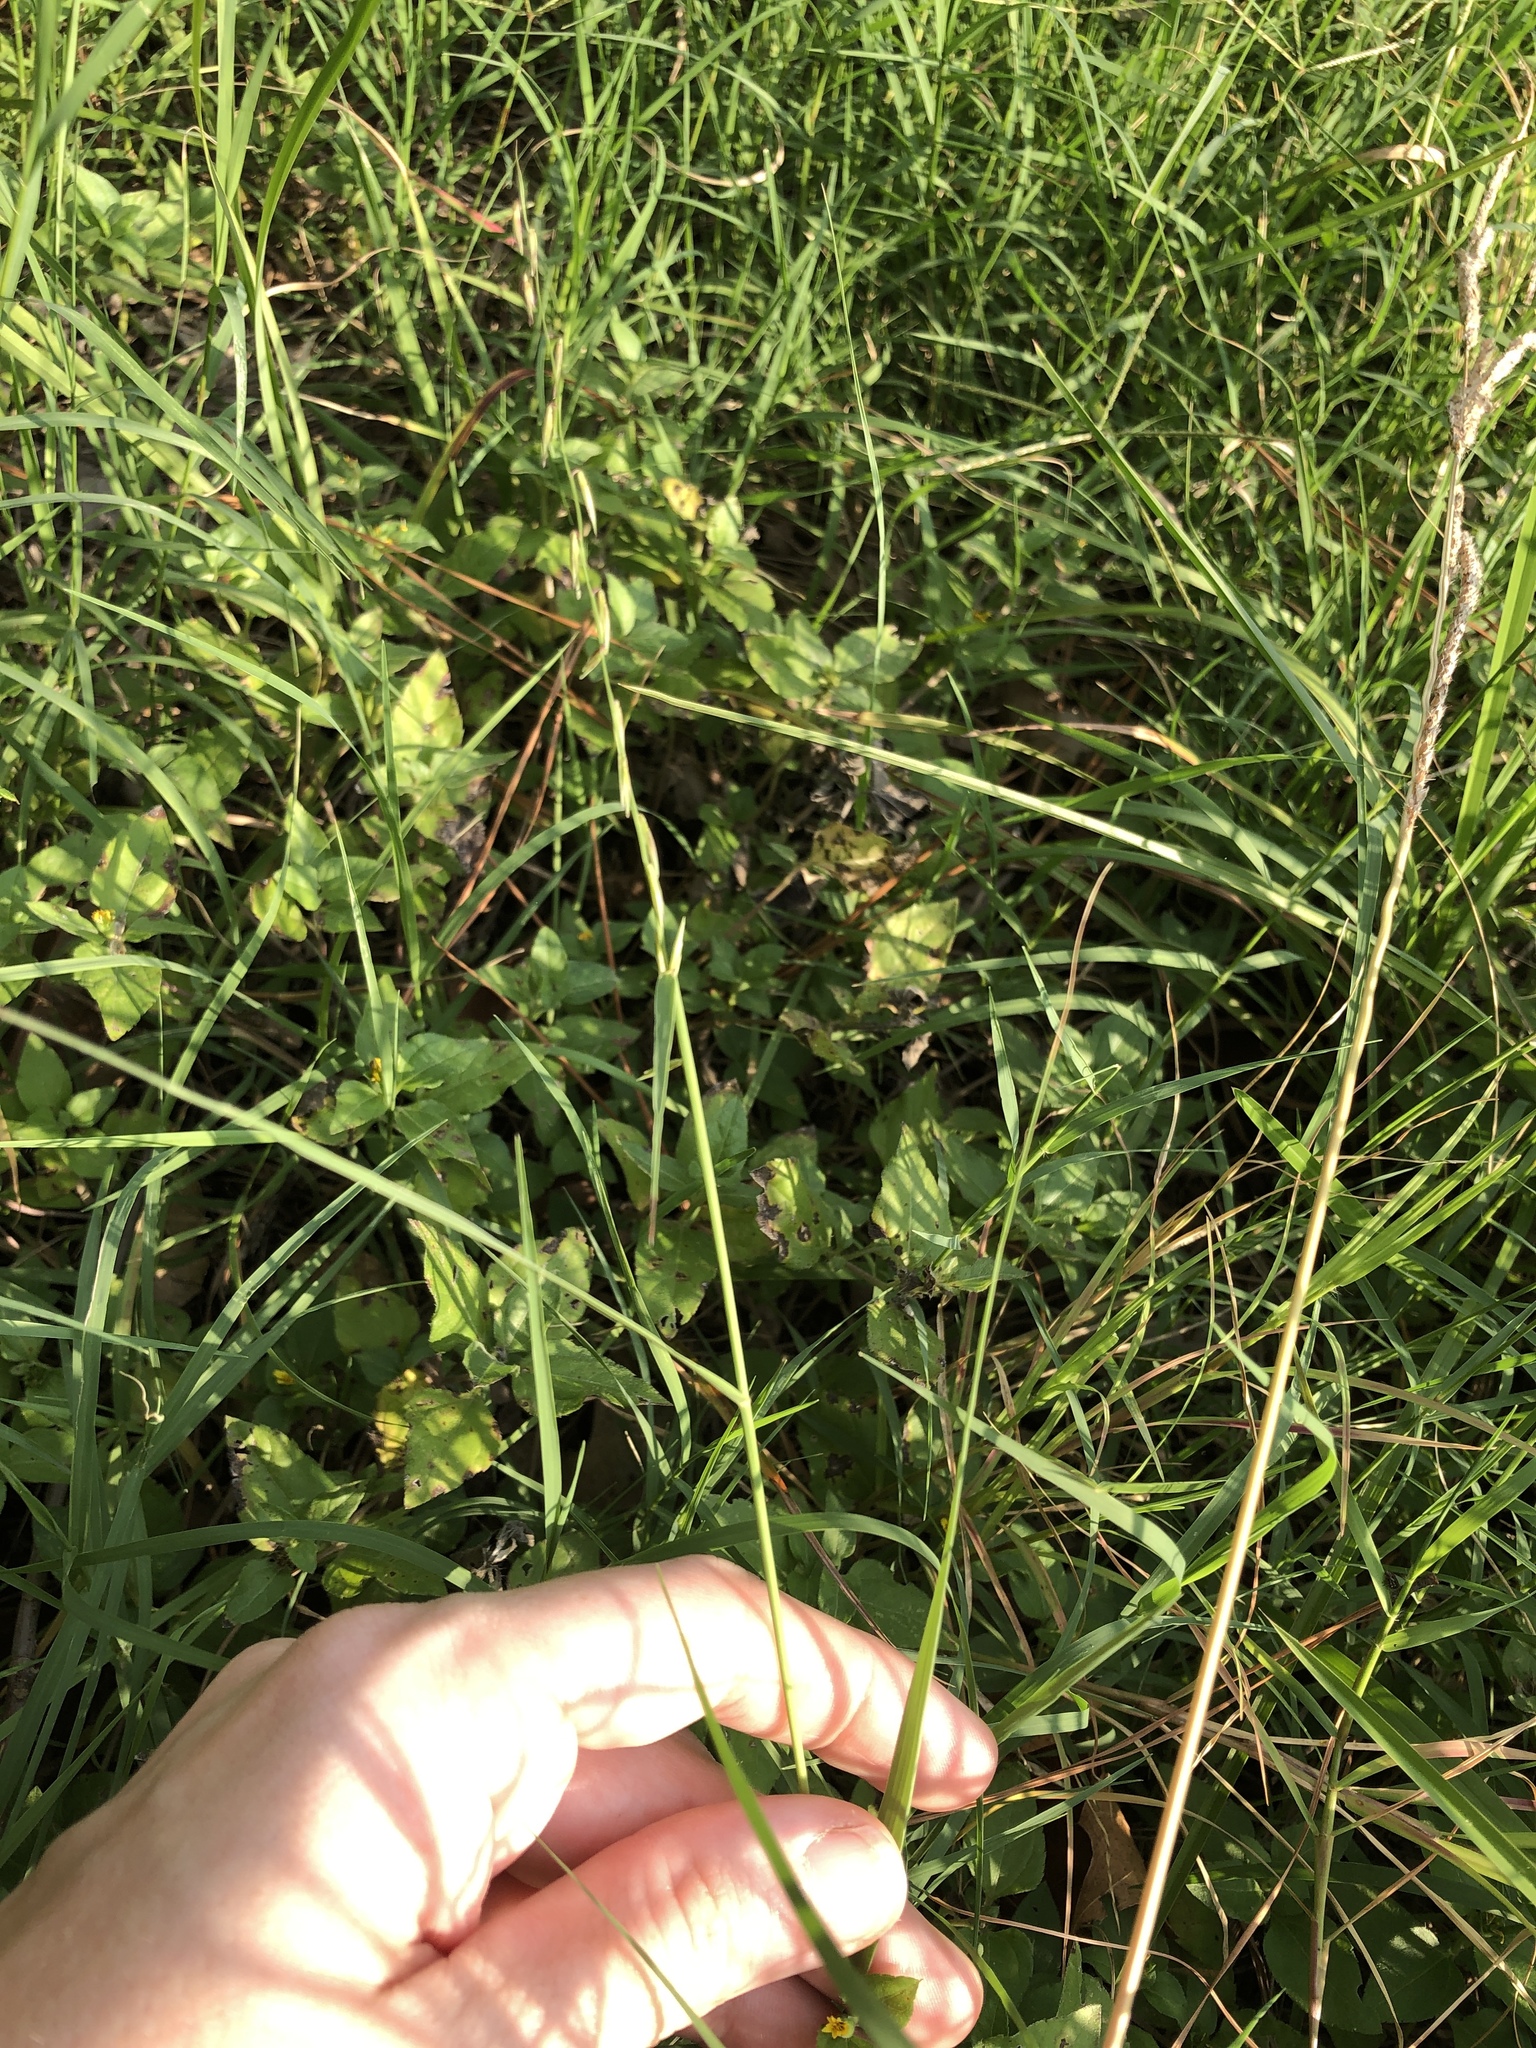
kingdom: Plantae
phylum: Tracheophyta
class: Liliopsida
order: Poales
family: Poaceae
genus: Bouteloua
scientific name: Bouteloua curtipendula
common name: Side-oats grama
